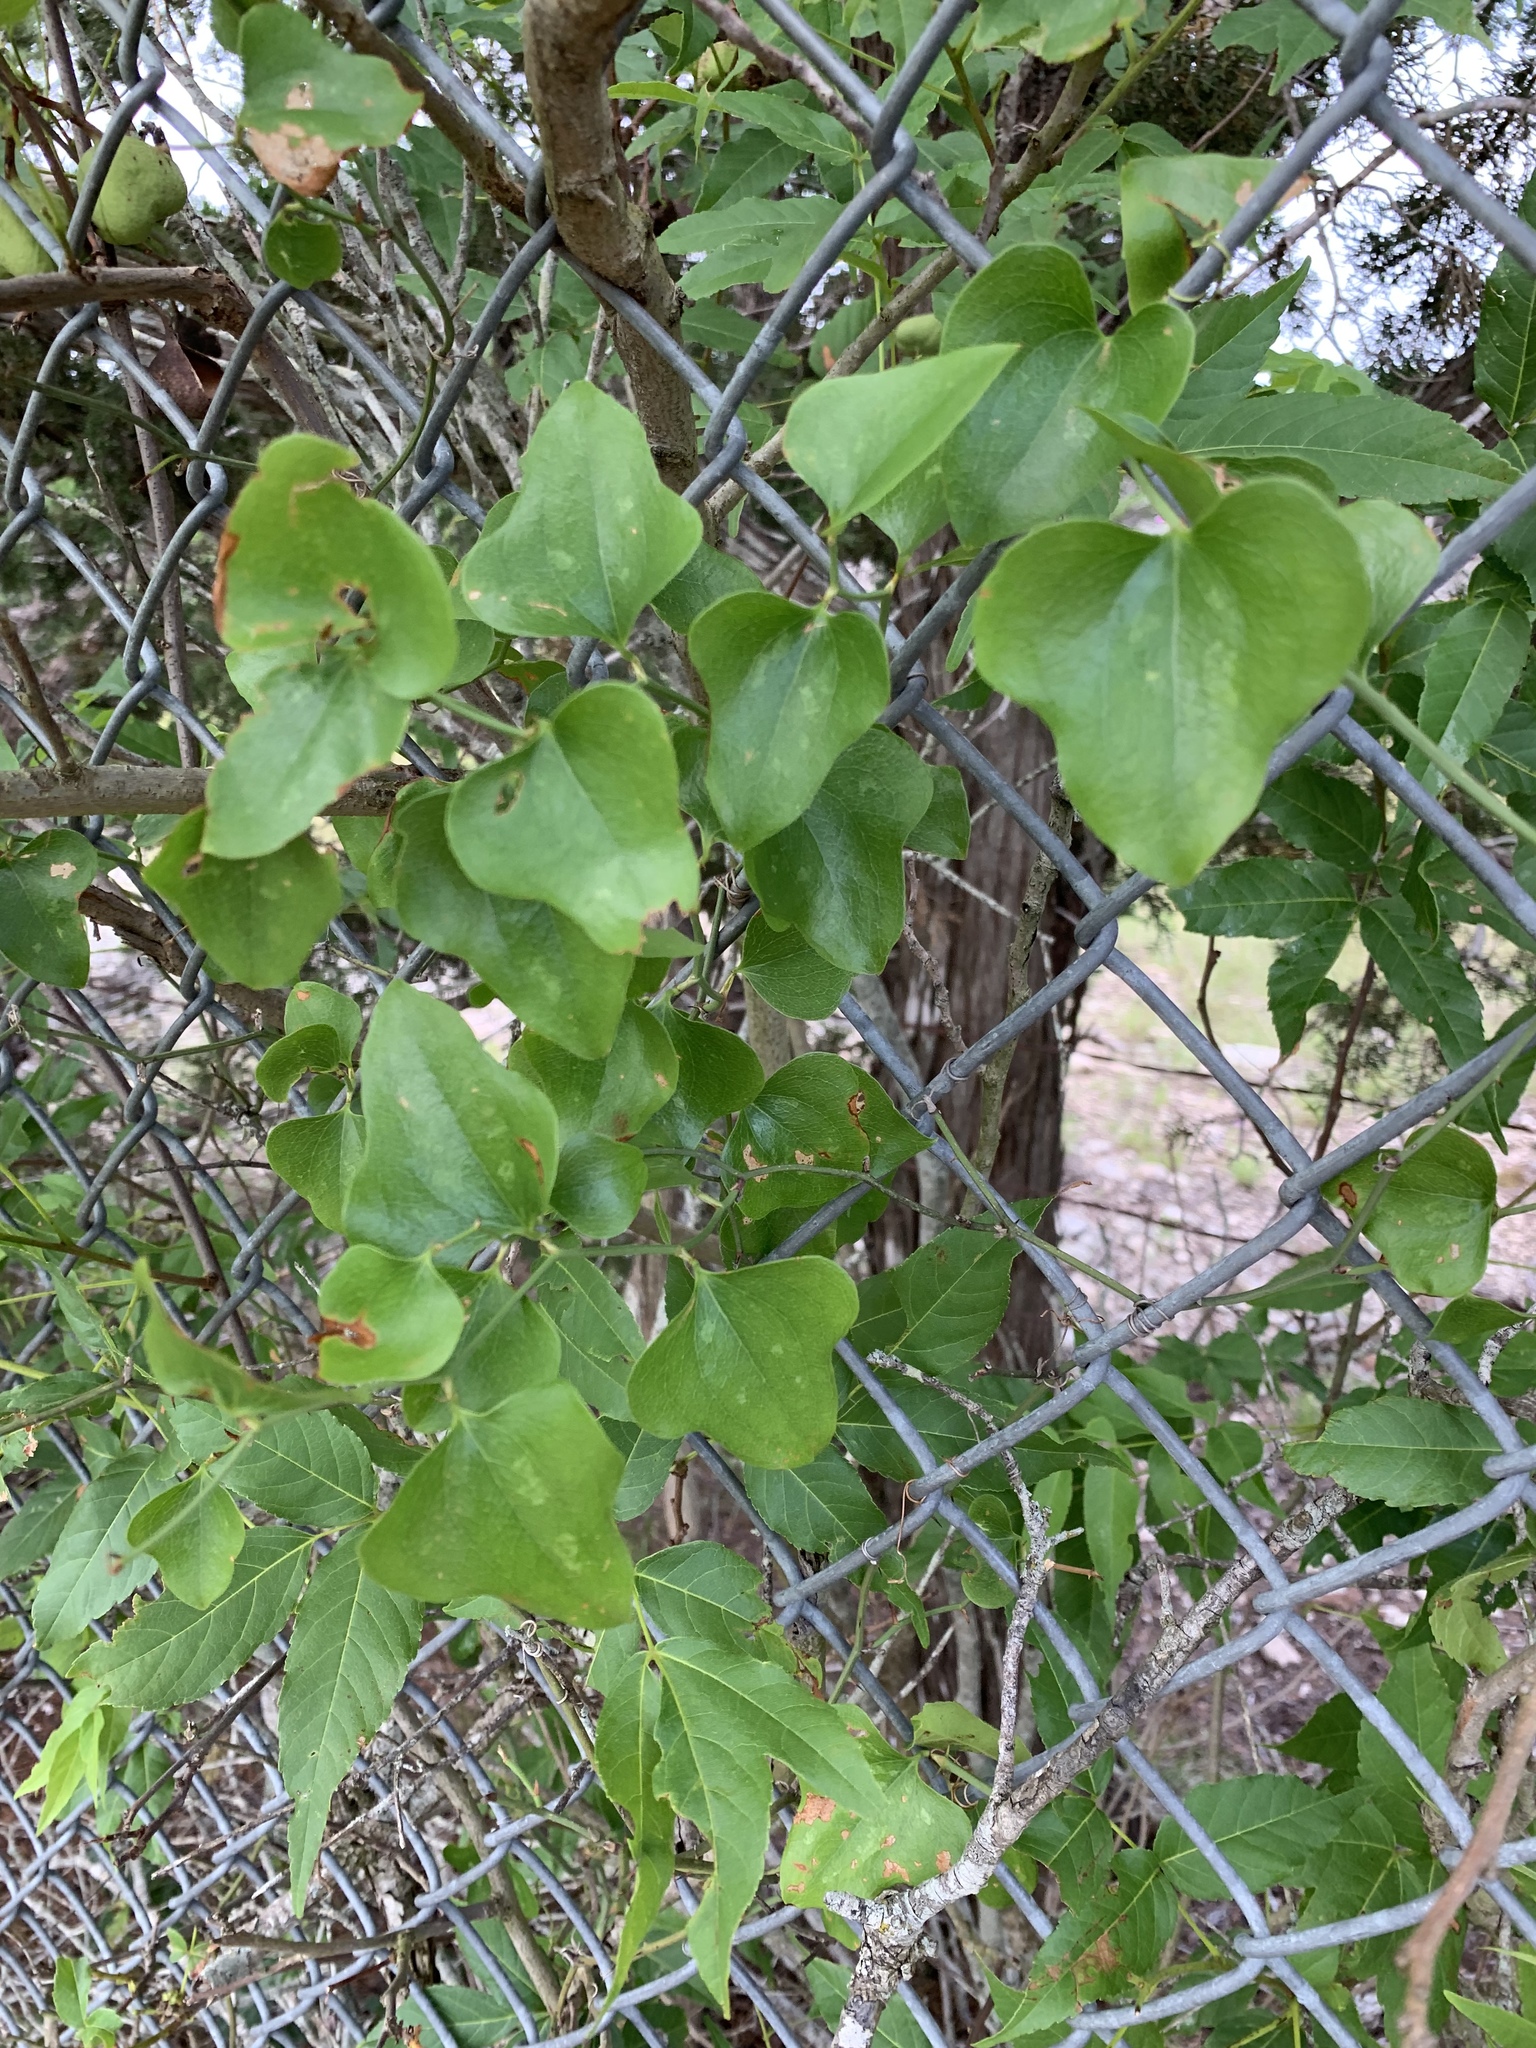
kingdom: Plantae
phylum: Tracheophyta
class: Liliopsida
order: Liliales
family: Smilacaceae
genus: Smilax
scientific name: Smilax bona-nox
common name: Catbrier
